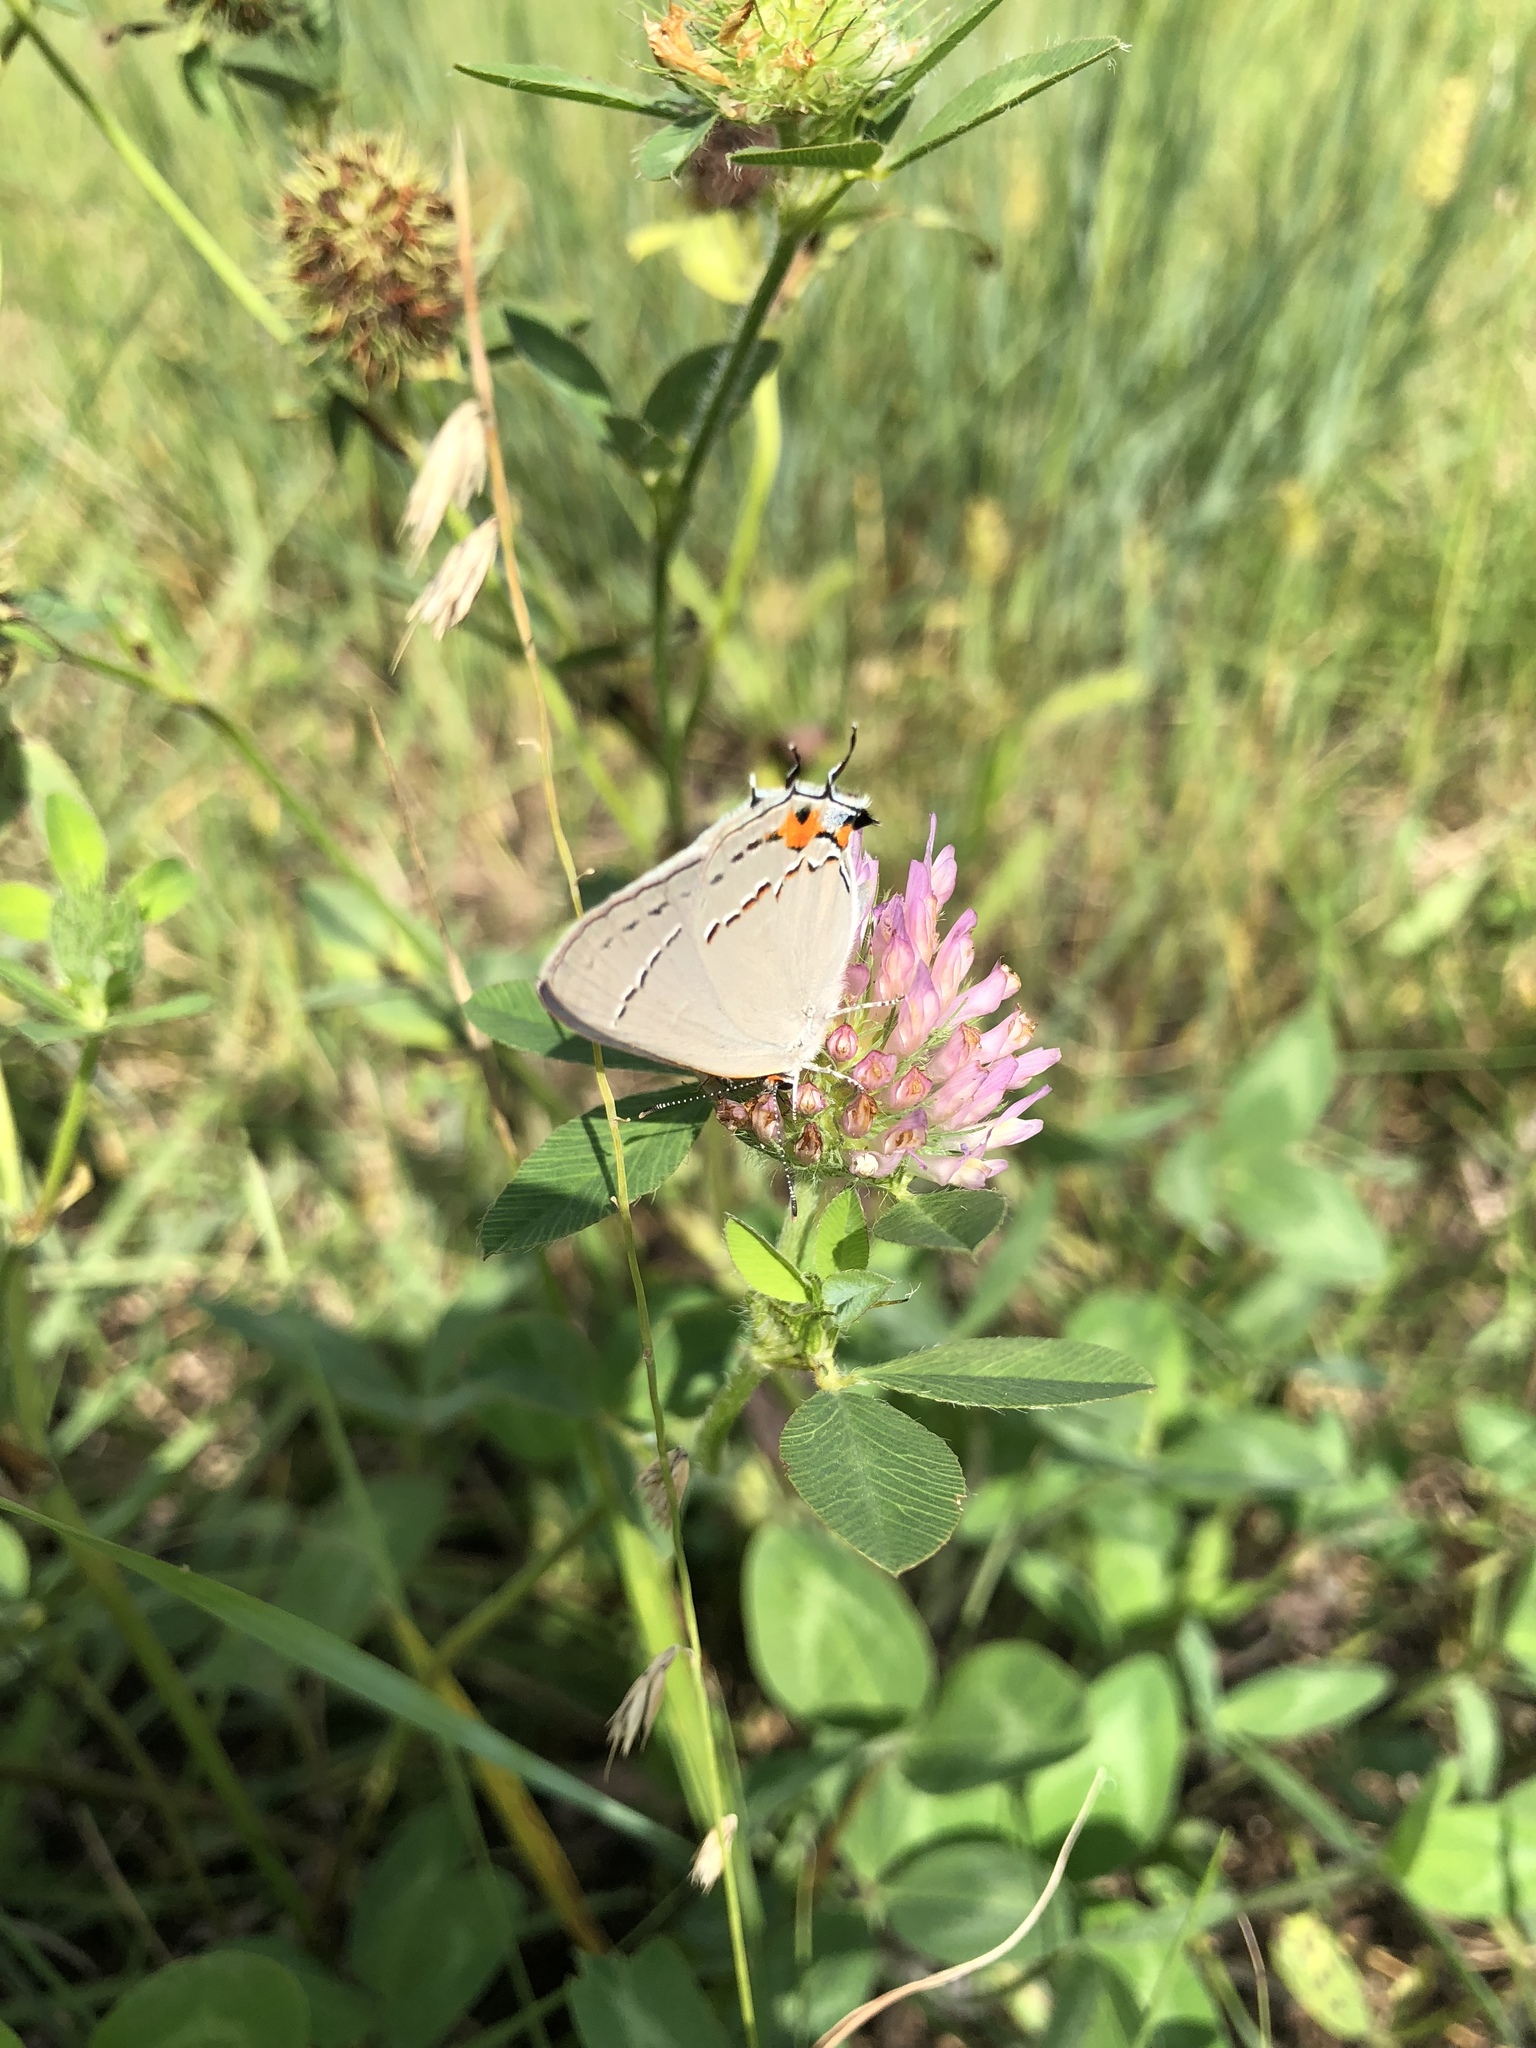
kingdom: Animalia
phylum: Arthropoda
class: Insecta
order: Lepidoptera
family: Lycaenidae
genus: Strymon
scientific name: Strymon melinus
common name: Gray hairstreak
